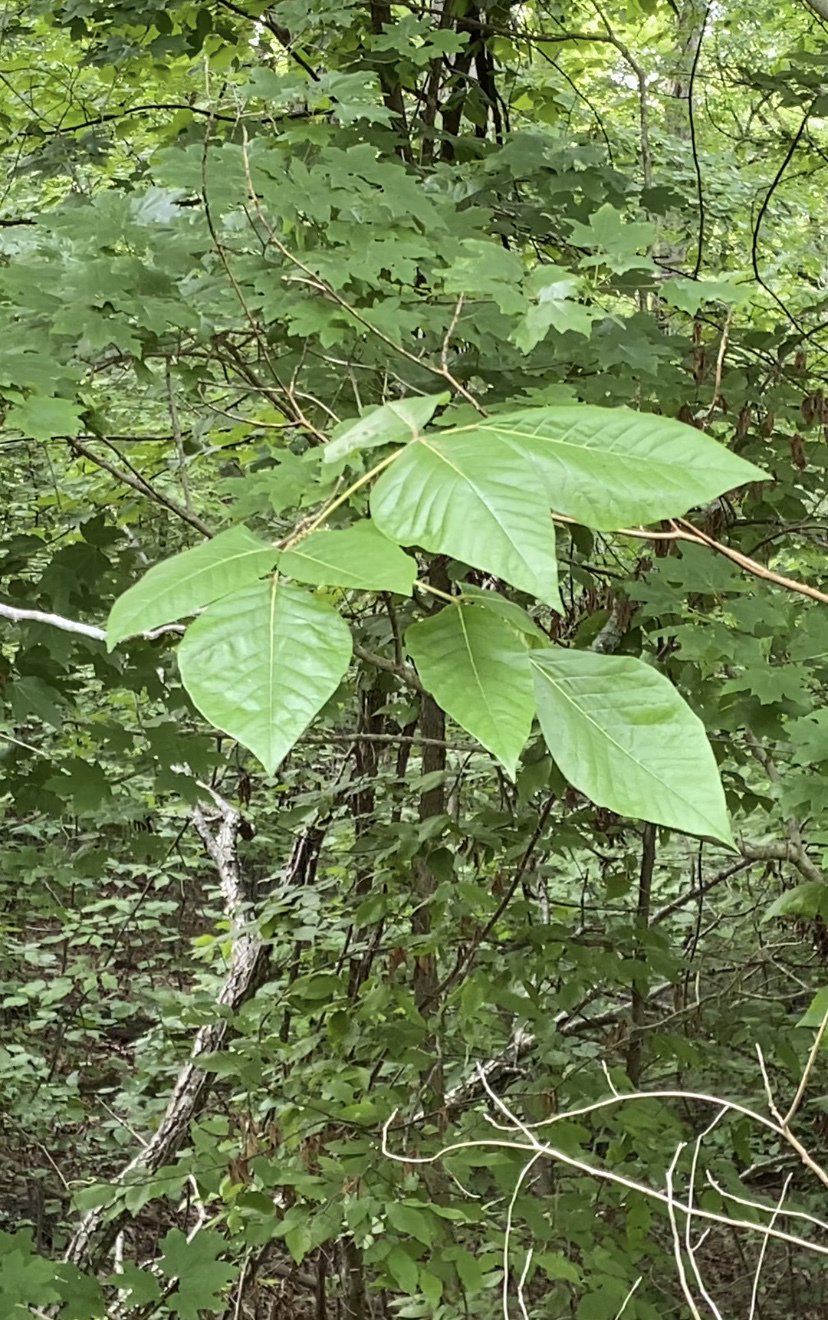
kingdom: Plantae
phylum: Tracheophyta
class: Magnoliopsida
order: Sapindales
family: Anacardiaceae
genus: Toxicodendron
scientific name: Toxicodendron radicans
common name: Poison ivy
